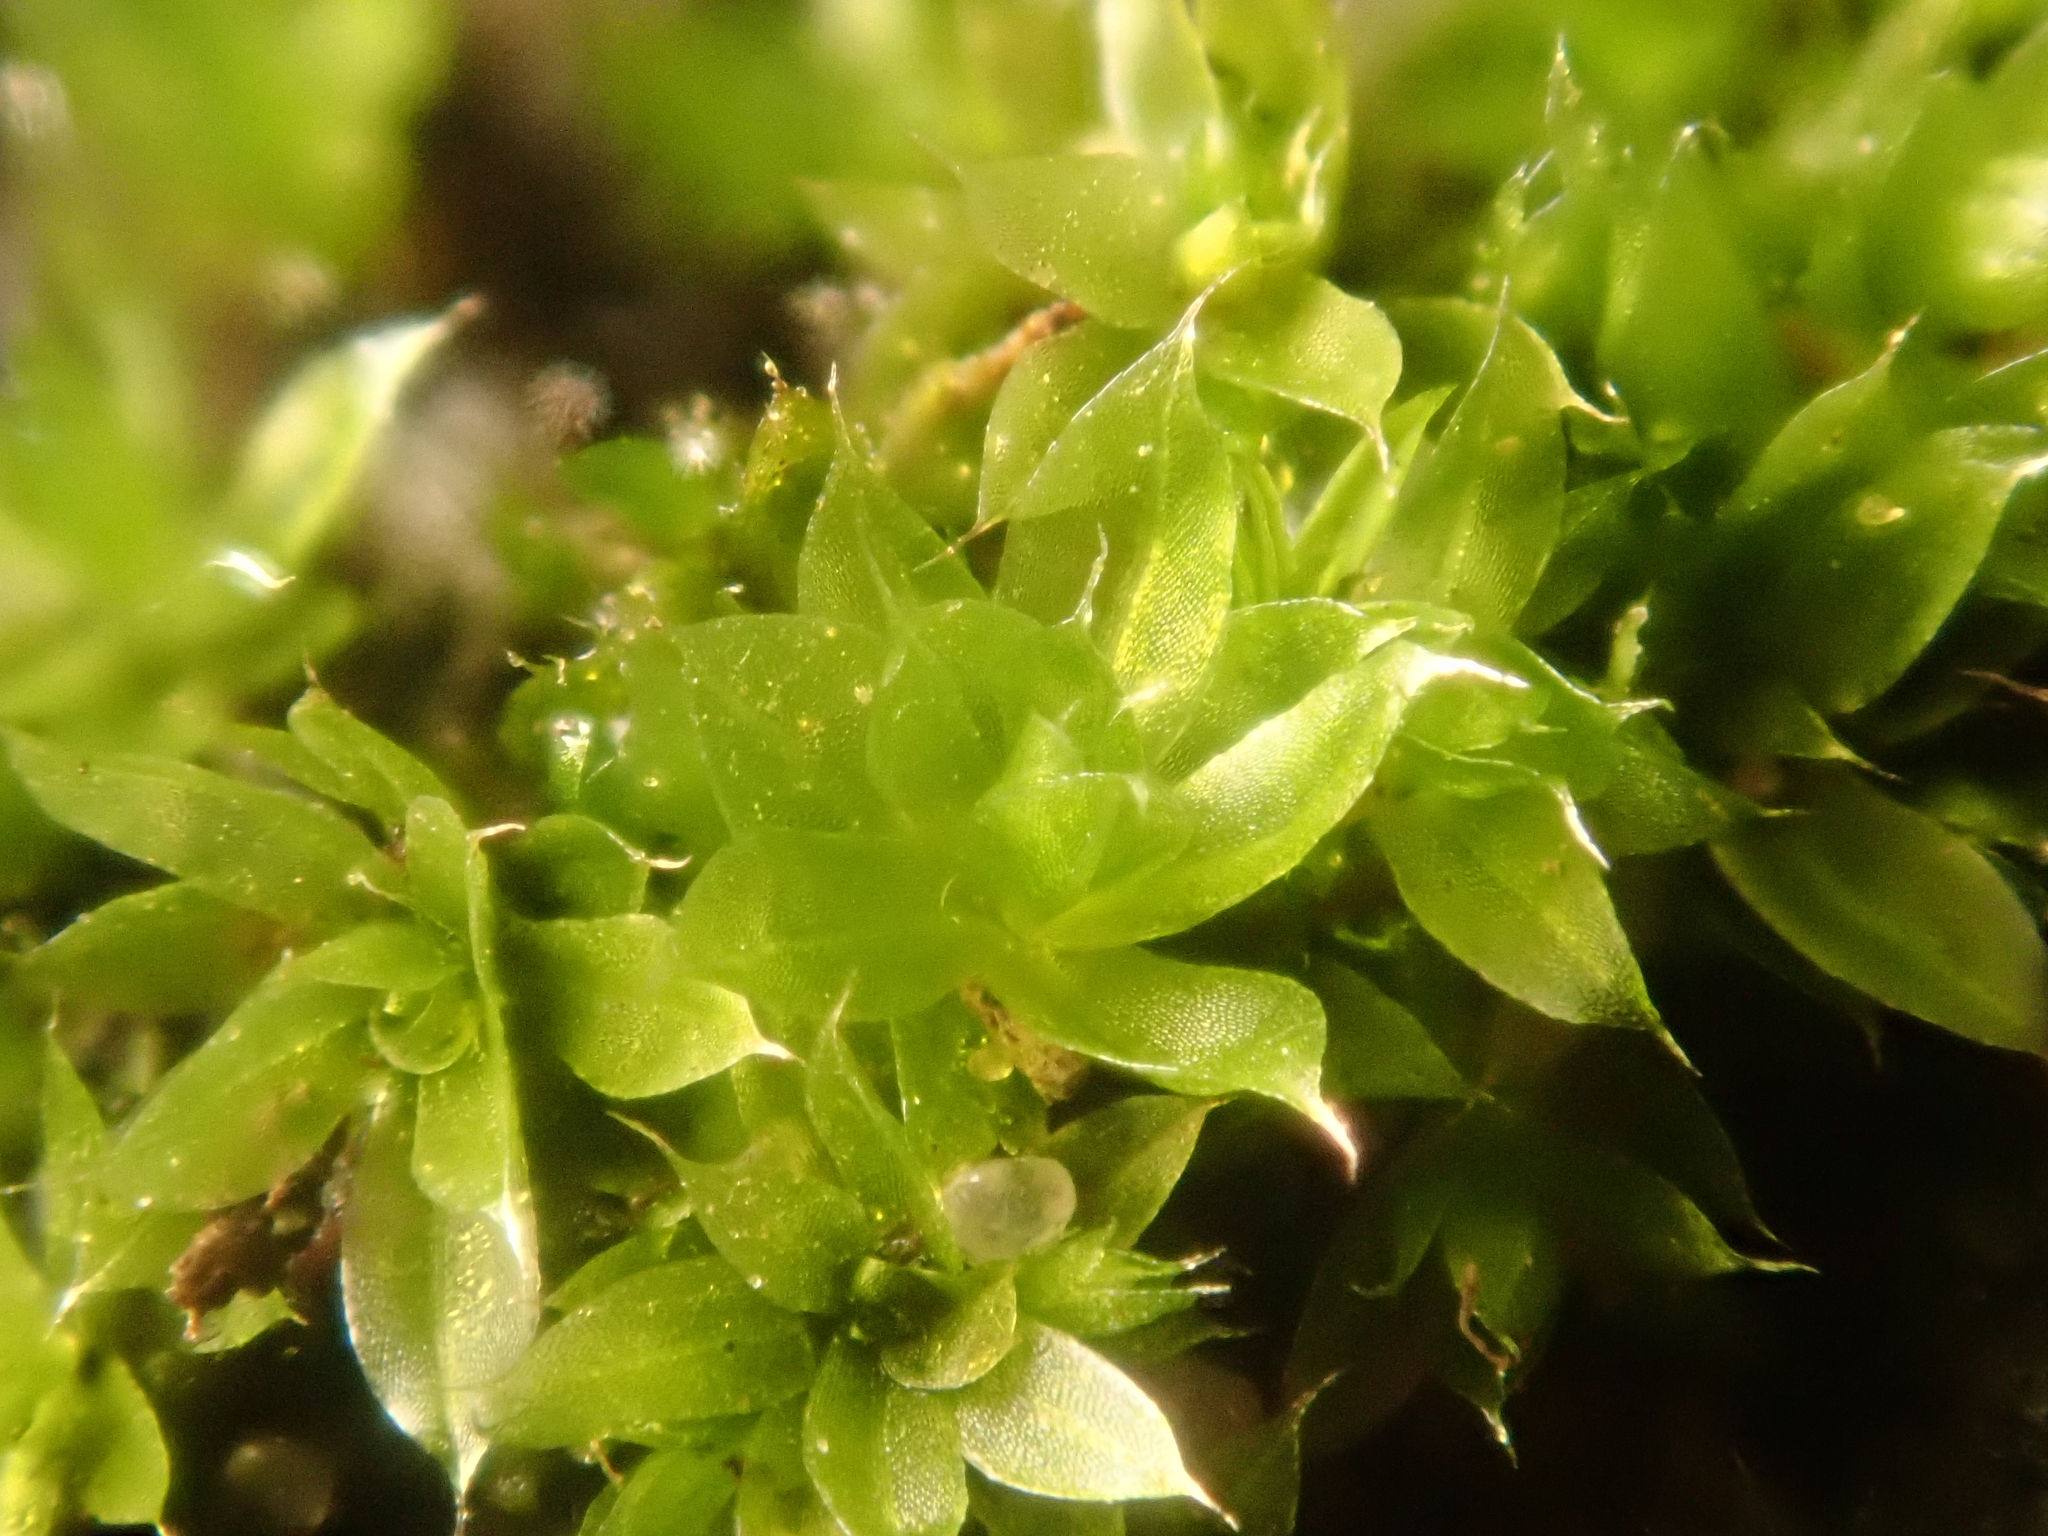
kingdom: Plantae
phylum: Bryophyta
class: Bryopsida
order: Bryales
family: Bryaceae
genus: Rosulabryum
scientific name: Rosulabryum capillare
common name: Capillary thread-moss
